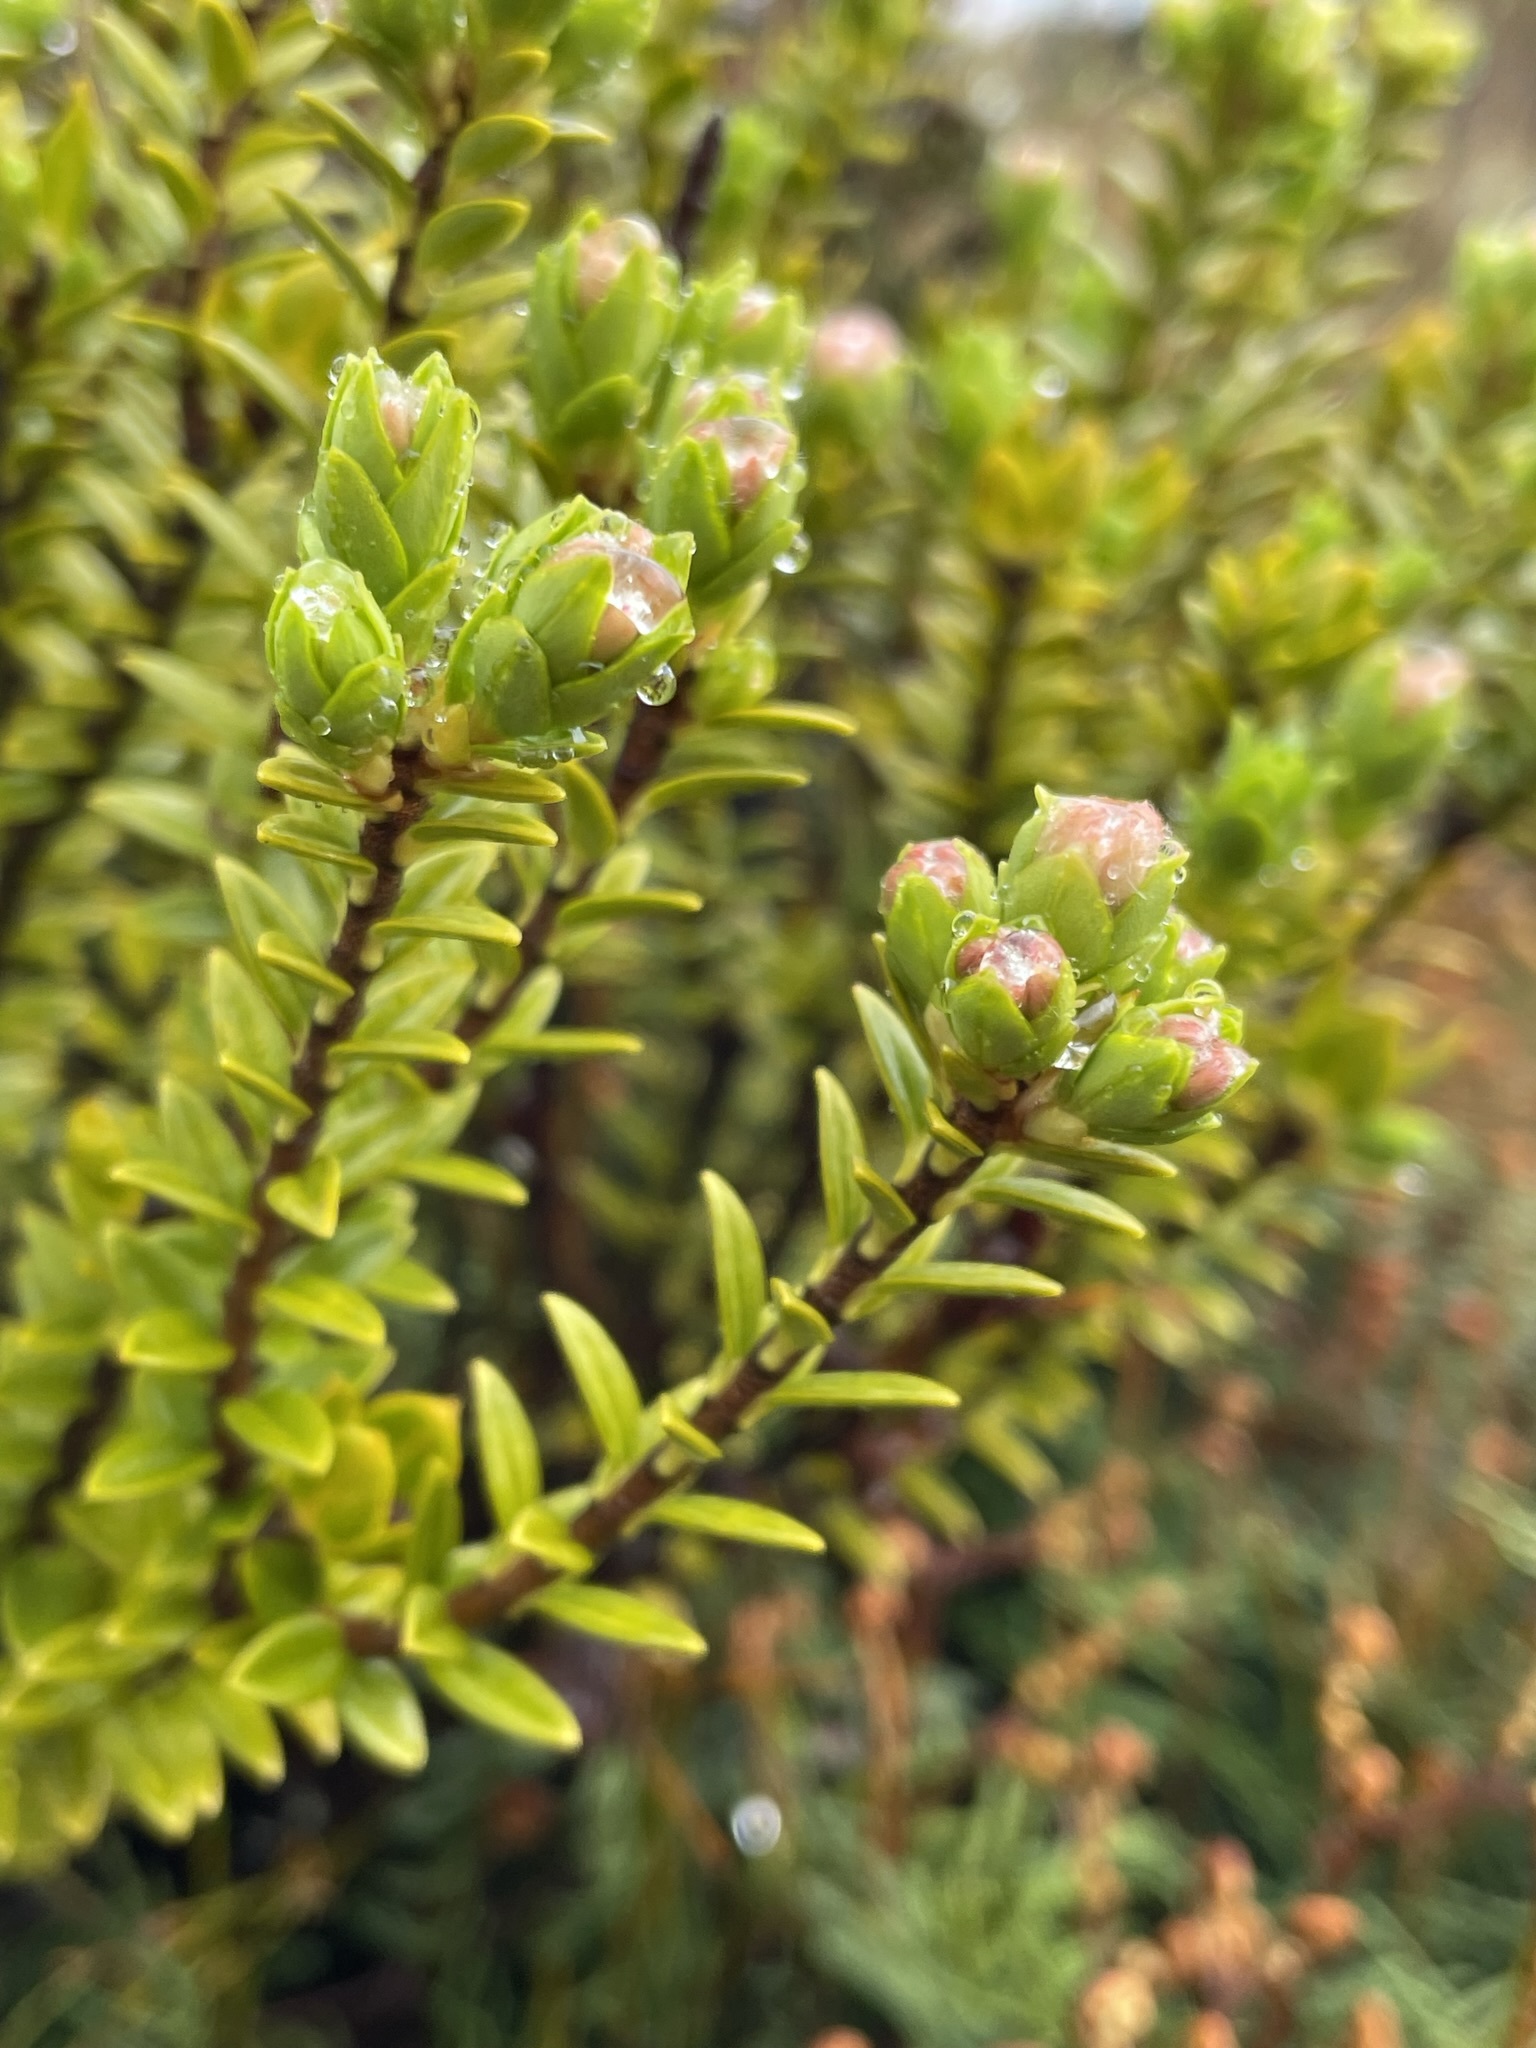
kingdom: Plantae
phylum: Tracheophyta
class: Magnoliopsida
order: Malvales
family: Thymelaeaceae
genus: Pimelea
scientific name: Pimelea buxifolia
